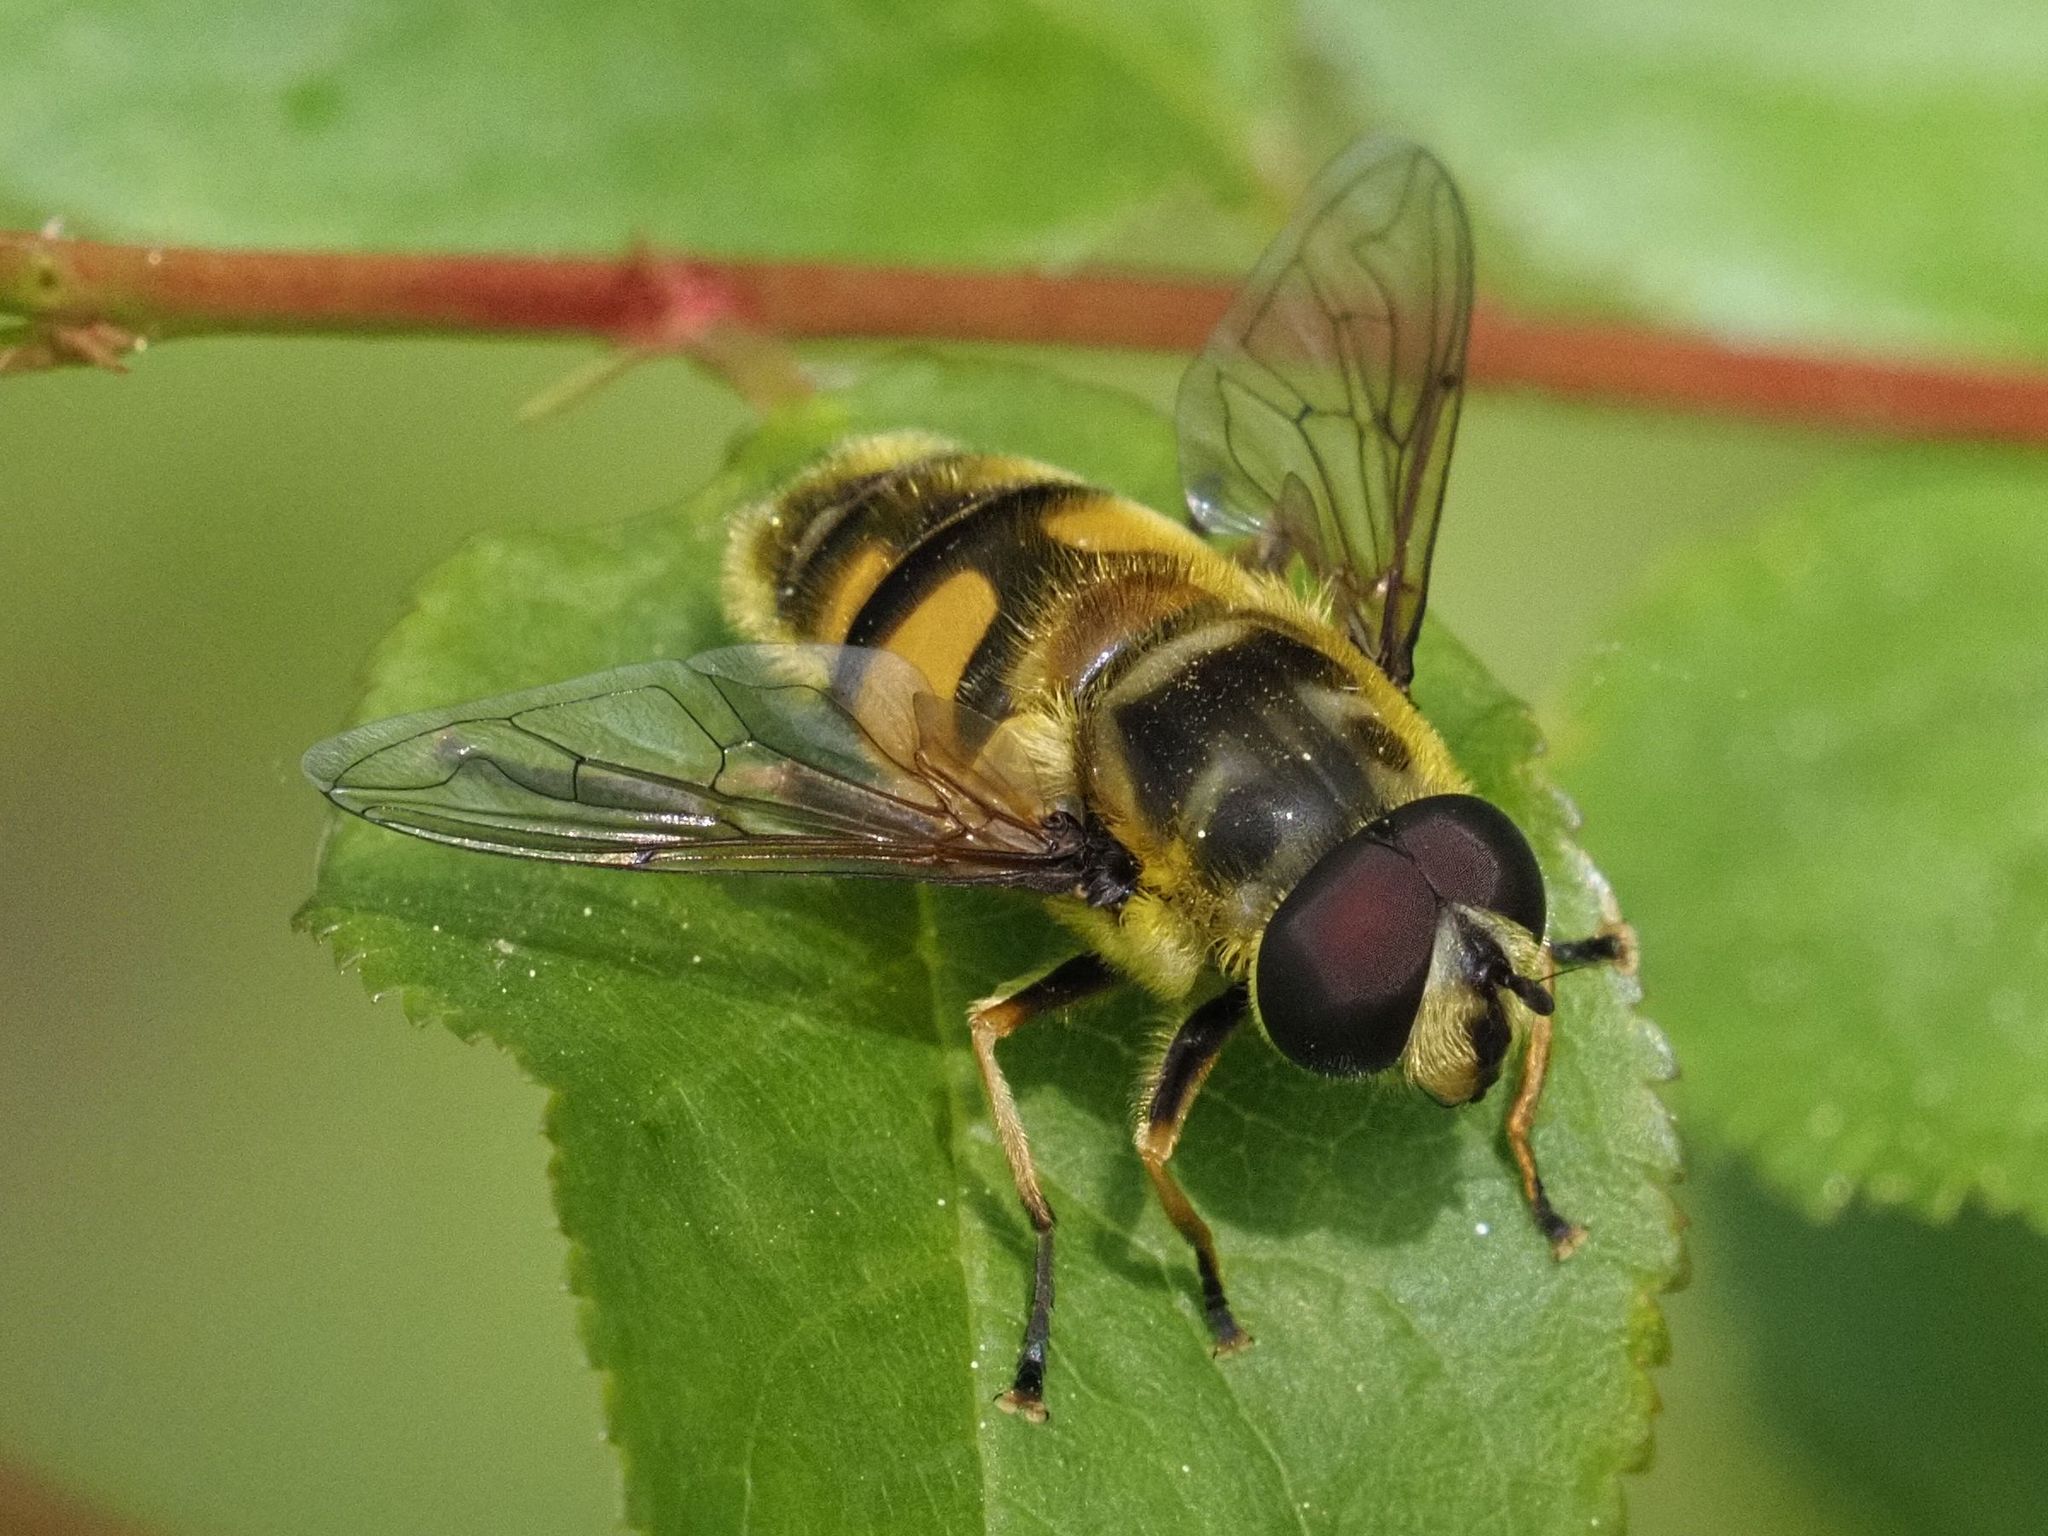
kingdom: Animalia
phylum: Arthropoda
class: Insecta
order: Diptera
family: Syrphidae
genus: Myathropa
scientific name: Myathropa florea
